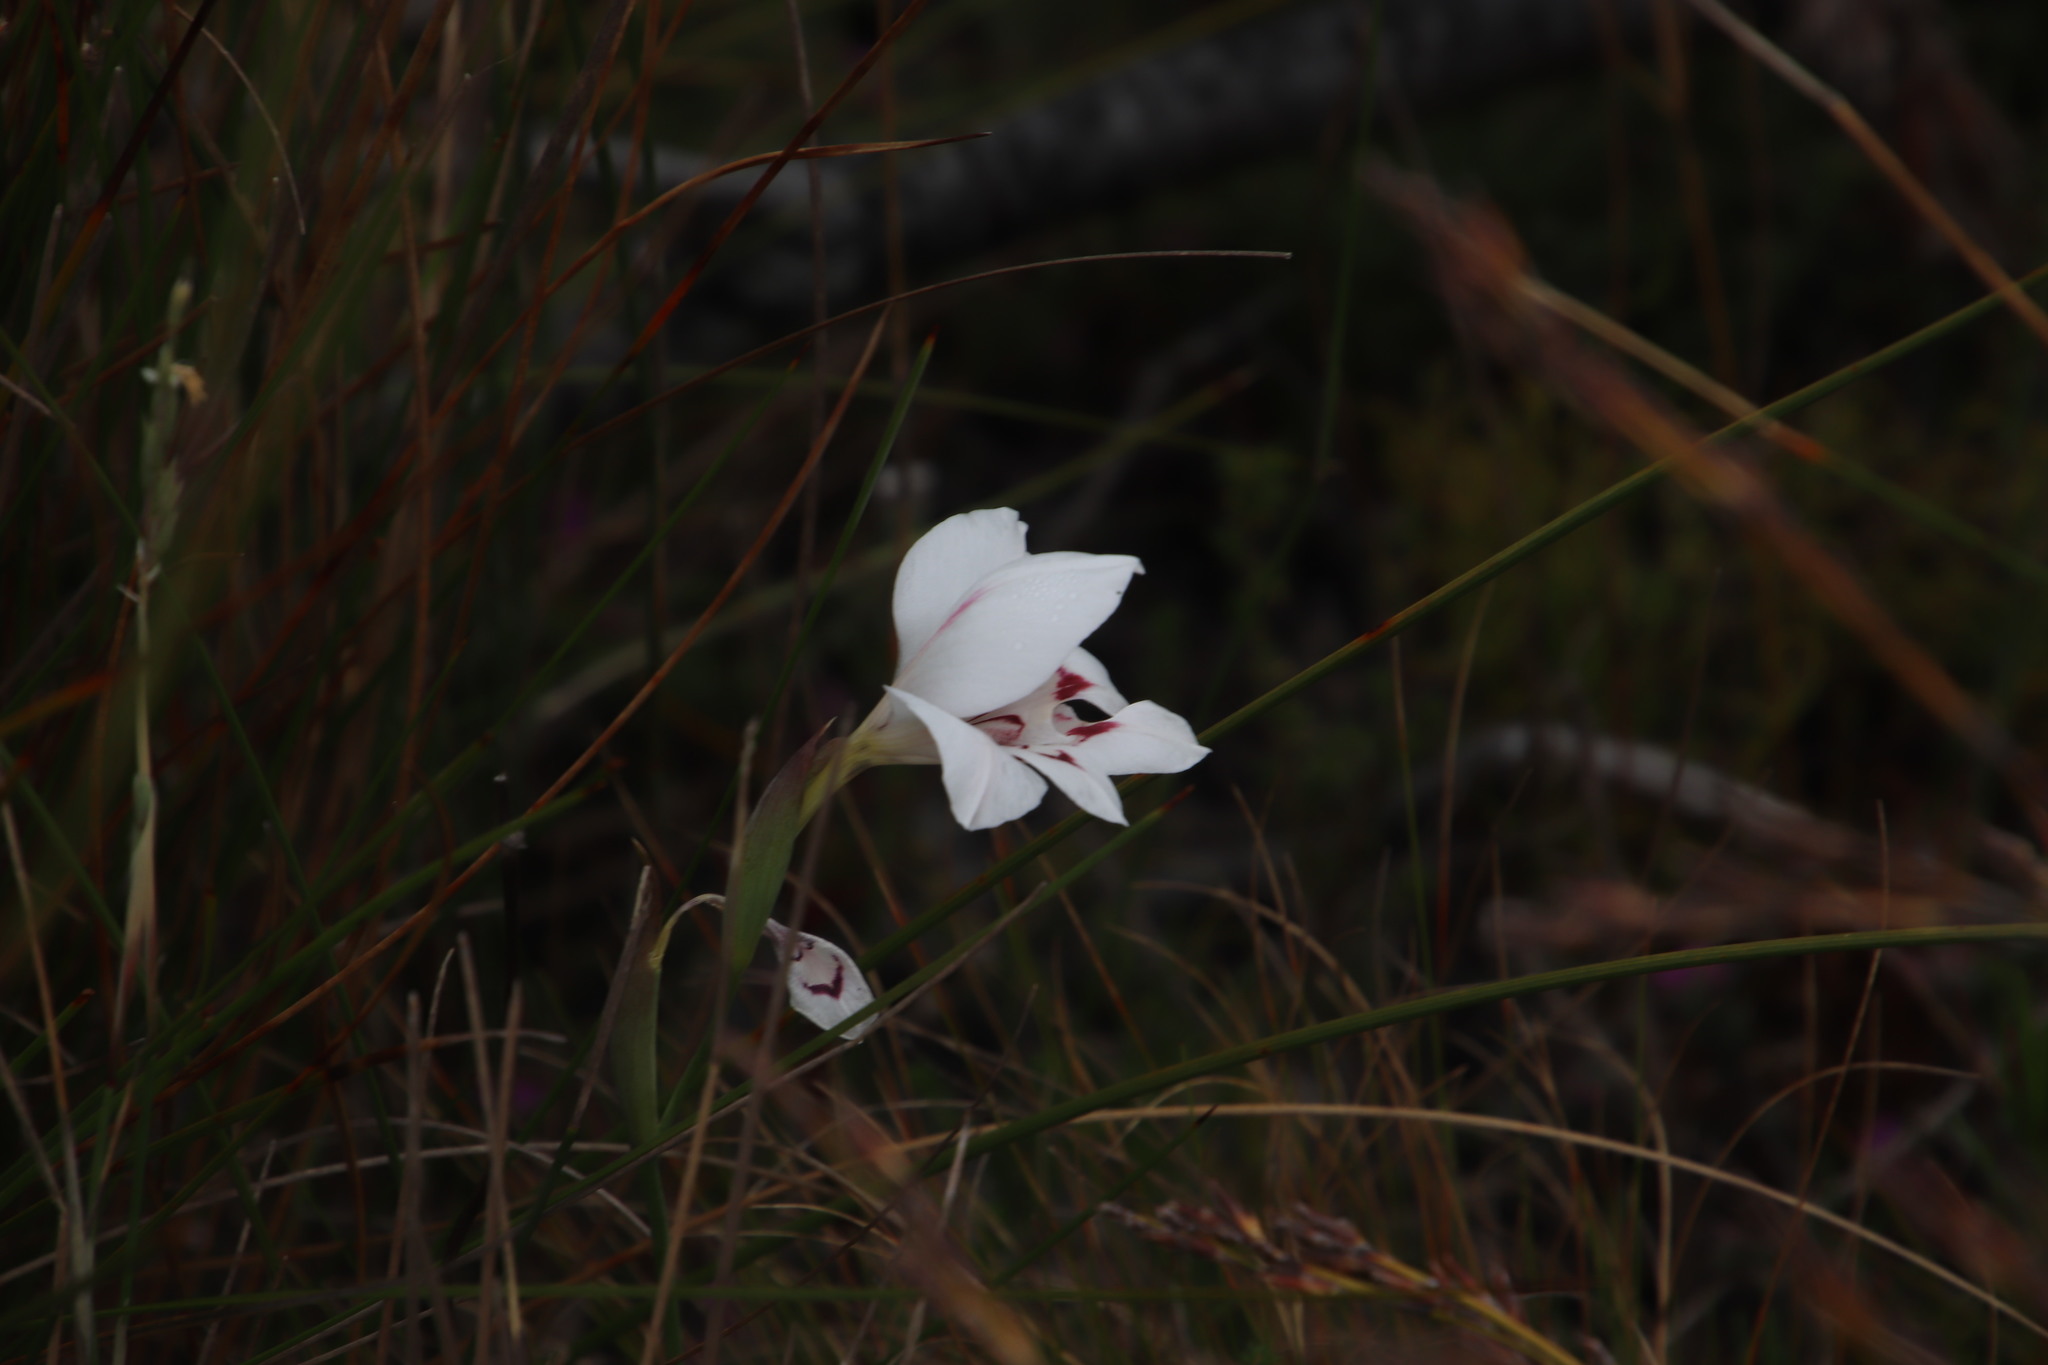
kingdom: Plantae
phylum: Tracheophyta
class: Liliopsida
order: Asparagales
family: Iridaceae
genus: Gladiolus
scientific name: Gladiolus debilis
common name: Painted-lady
